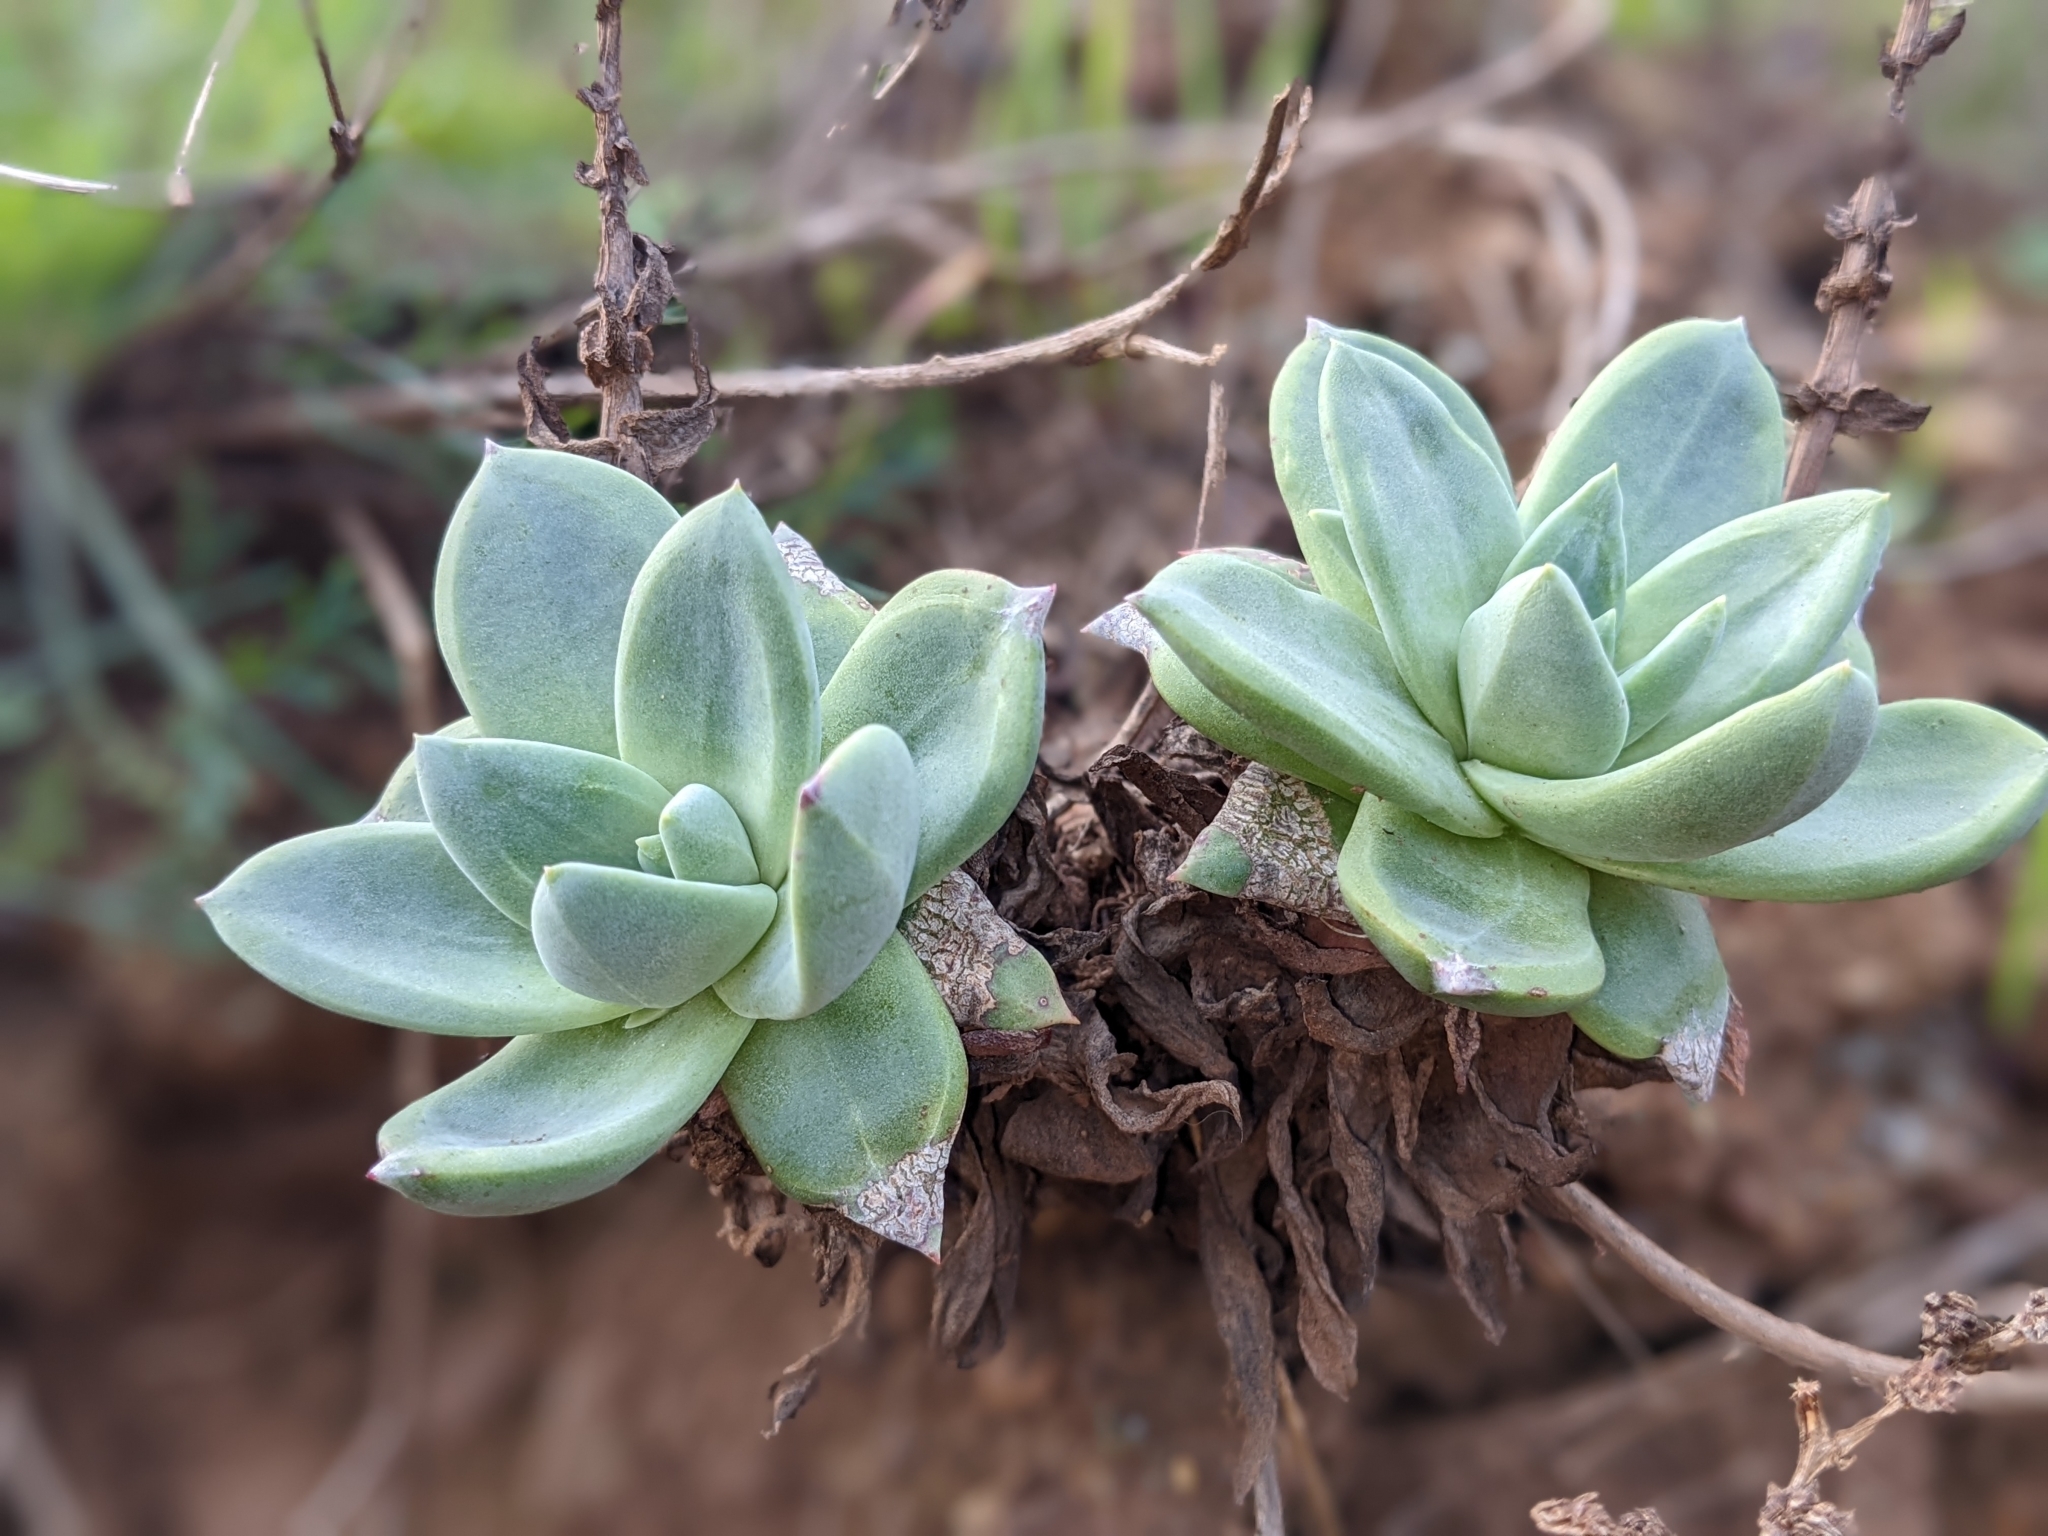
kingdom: Plantae
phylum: Tracheophyta
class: Magnoliopsida
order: Saxifragales
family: Crassulaceae
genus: Dudleya
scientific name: Dudleya farinosa
